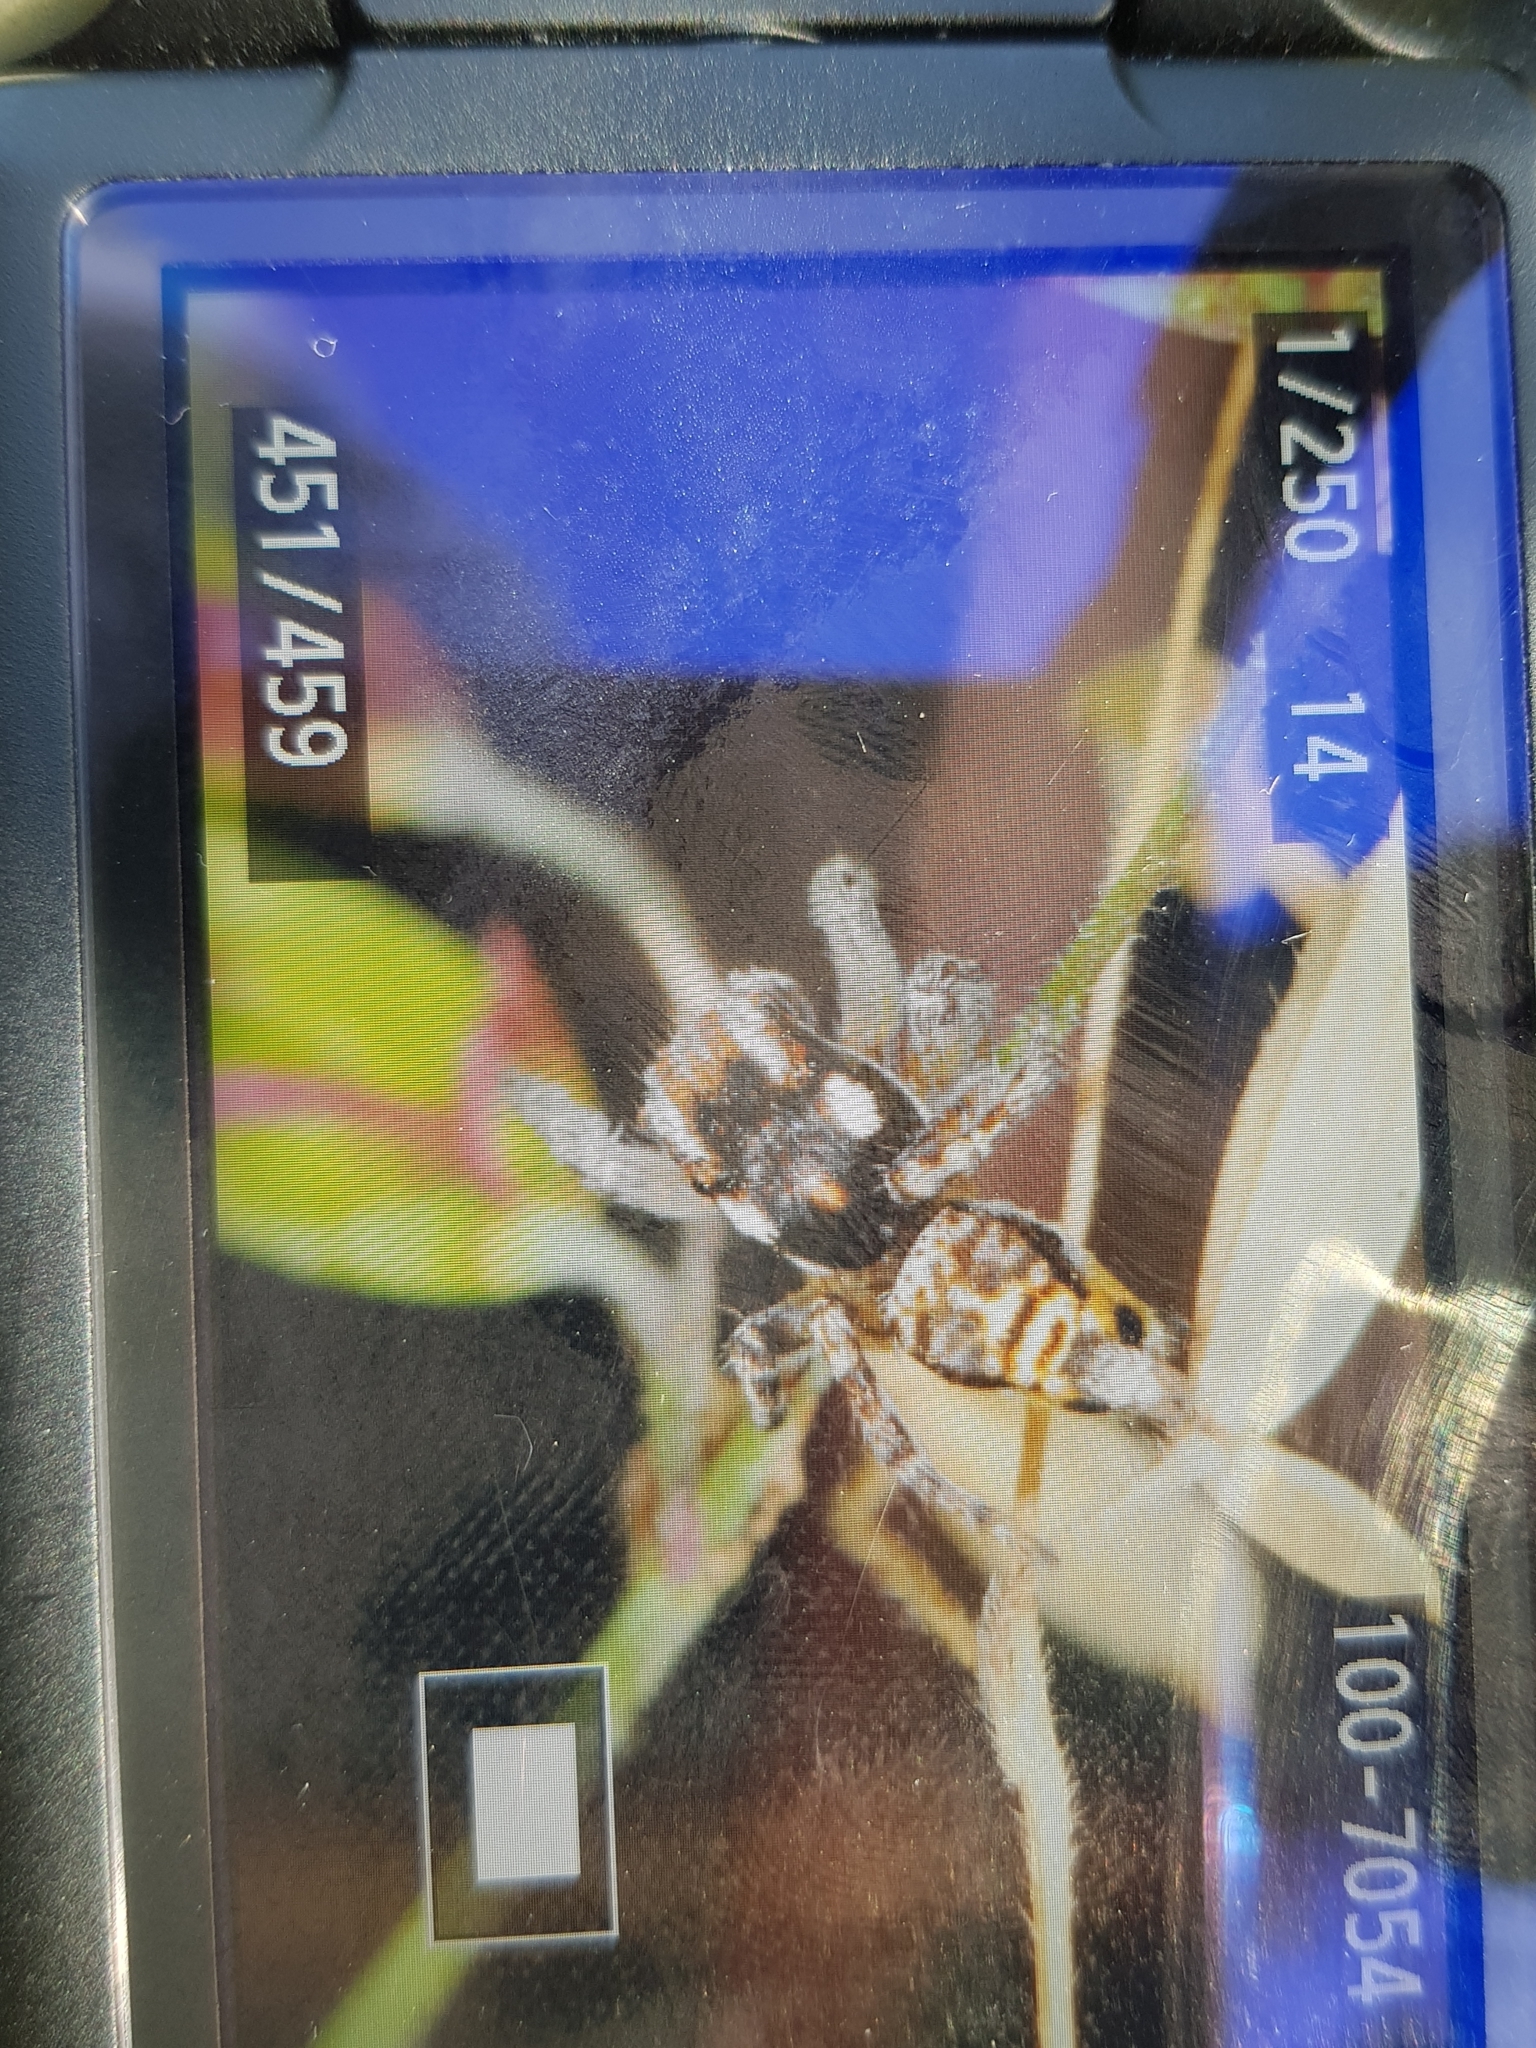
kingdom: Animalia
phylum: Arthropoda
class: Arachnida
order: Araneae
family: Salticidae
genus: Maratus
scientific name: Maratus plumosus
